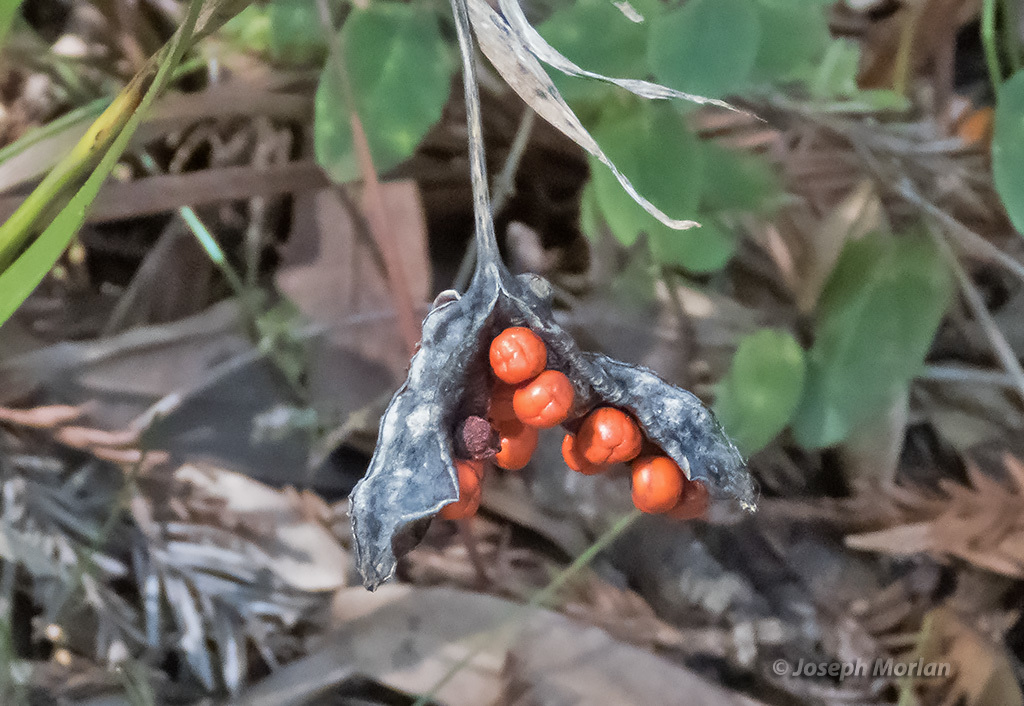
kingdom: Plantae
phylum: Tracheophyta
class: Liliopsida
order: Asparagales
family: Iridaceae
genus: Iris
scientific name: Iris foetidissima
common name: Stinking iris
